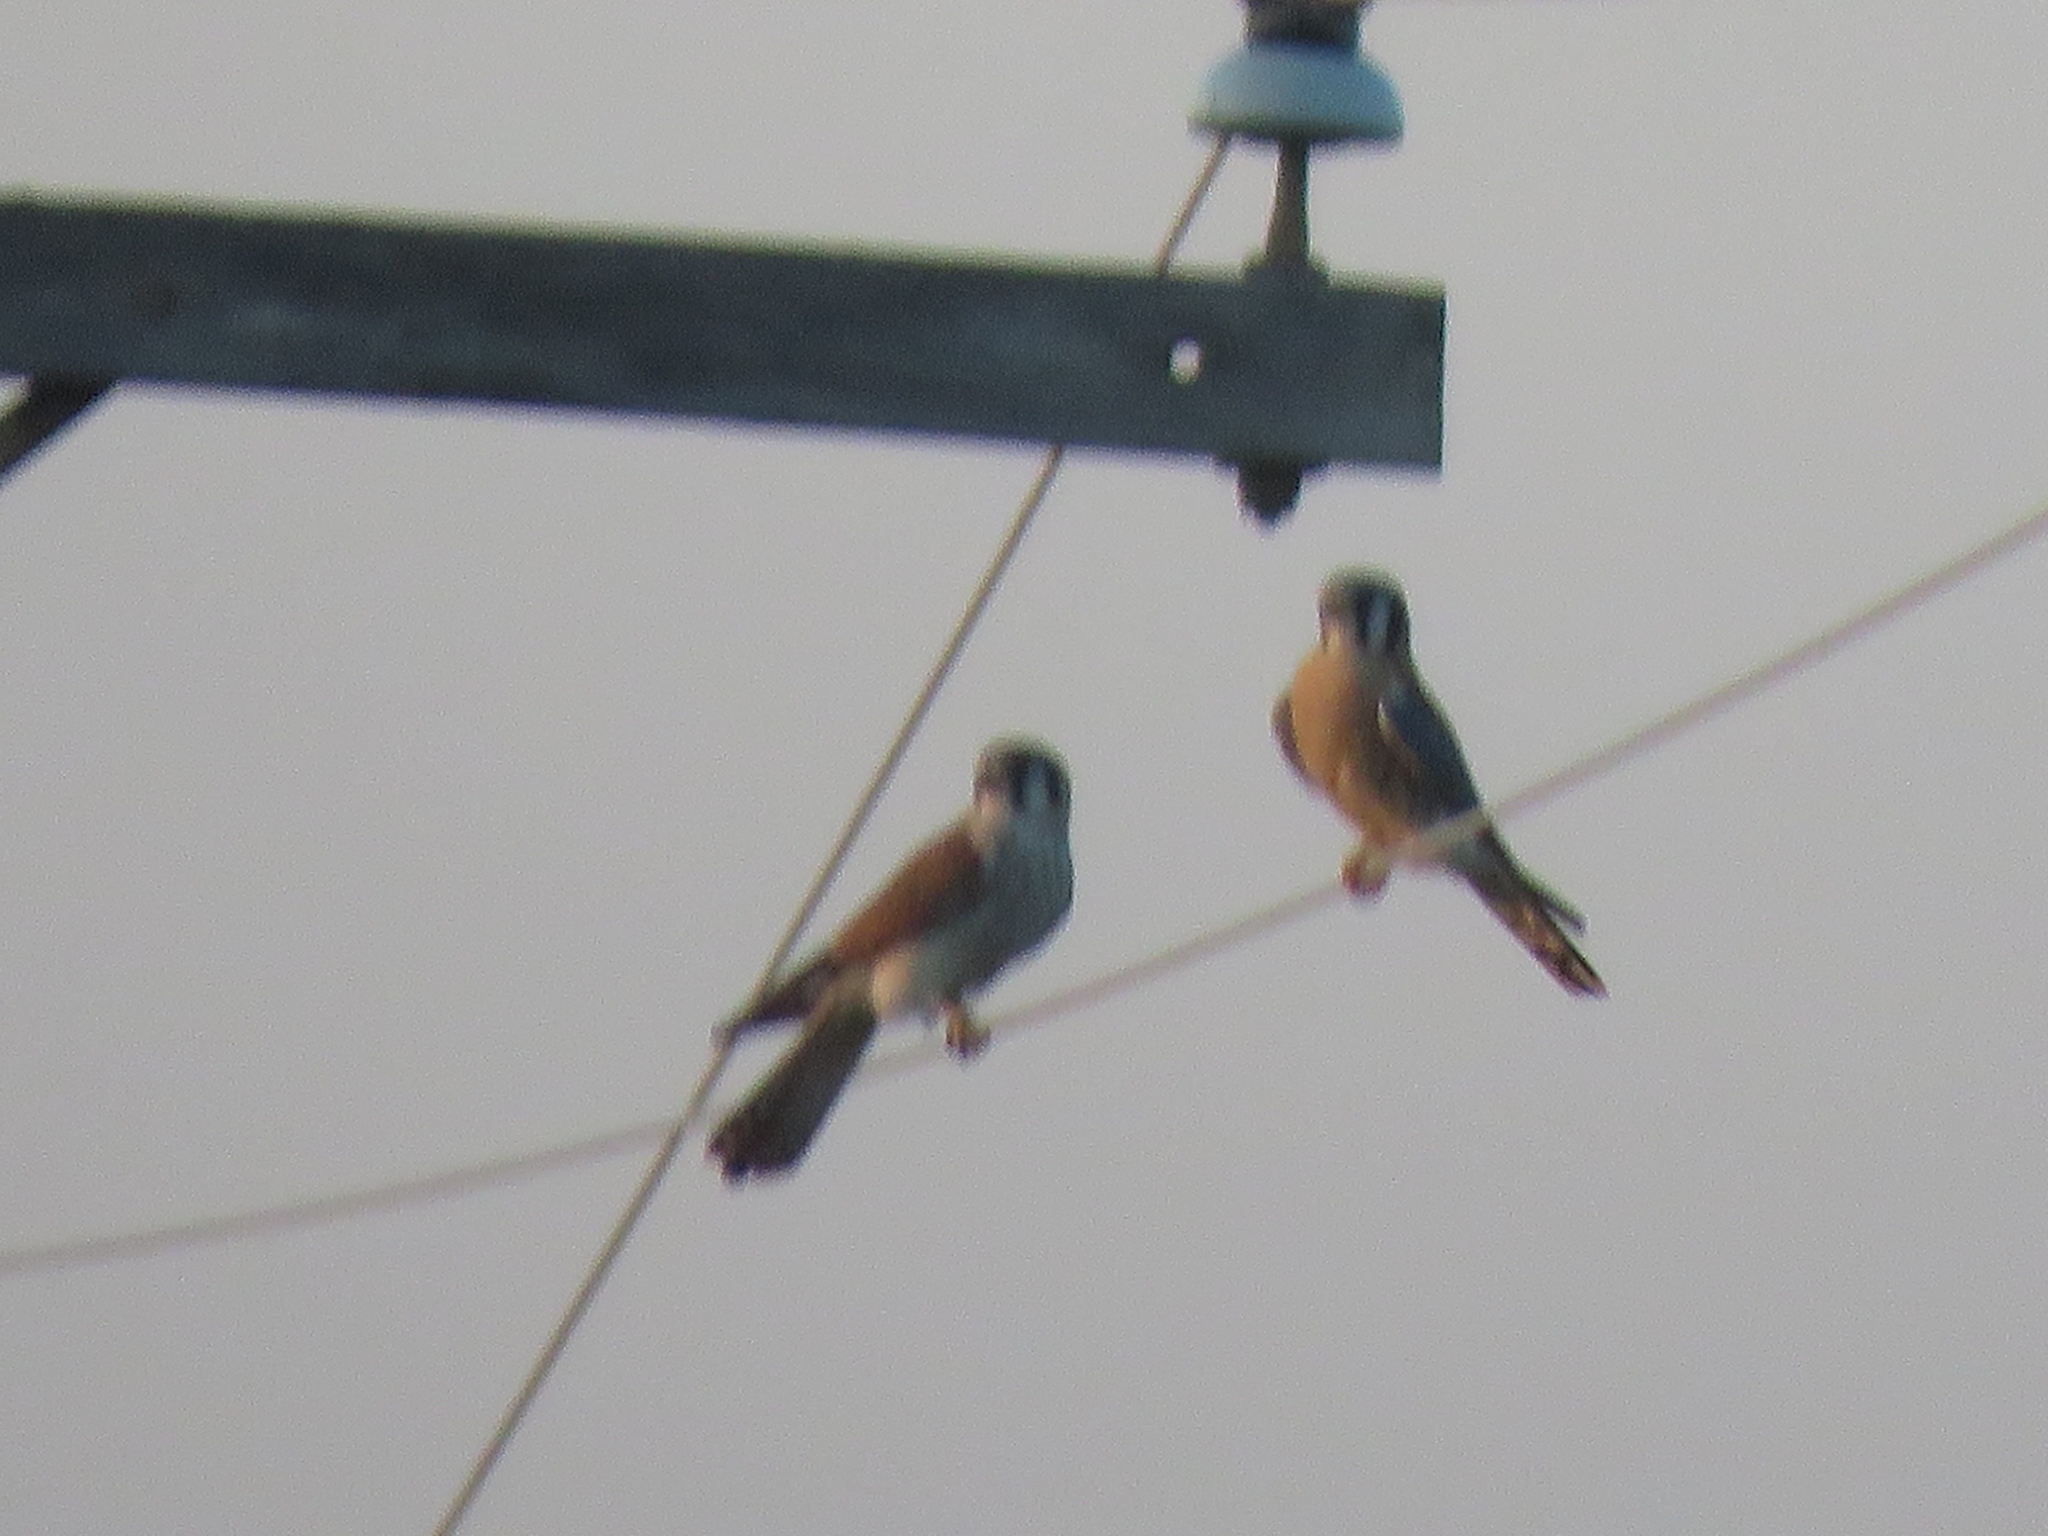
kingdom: Animalia
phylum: Chordata
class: Aves
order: Falconiformes
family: Falconidae
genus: Falco
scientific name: Falco sparverius
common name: American kestrel
